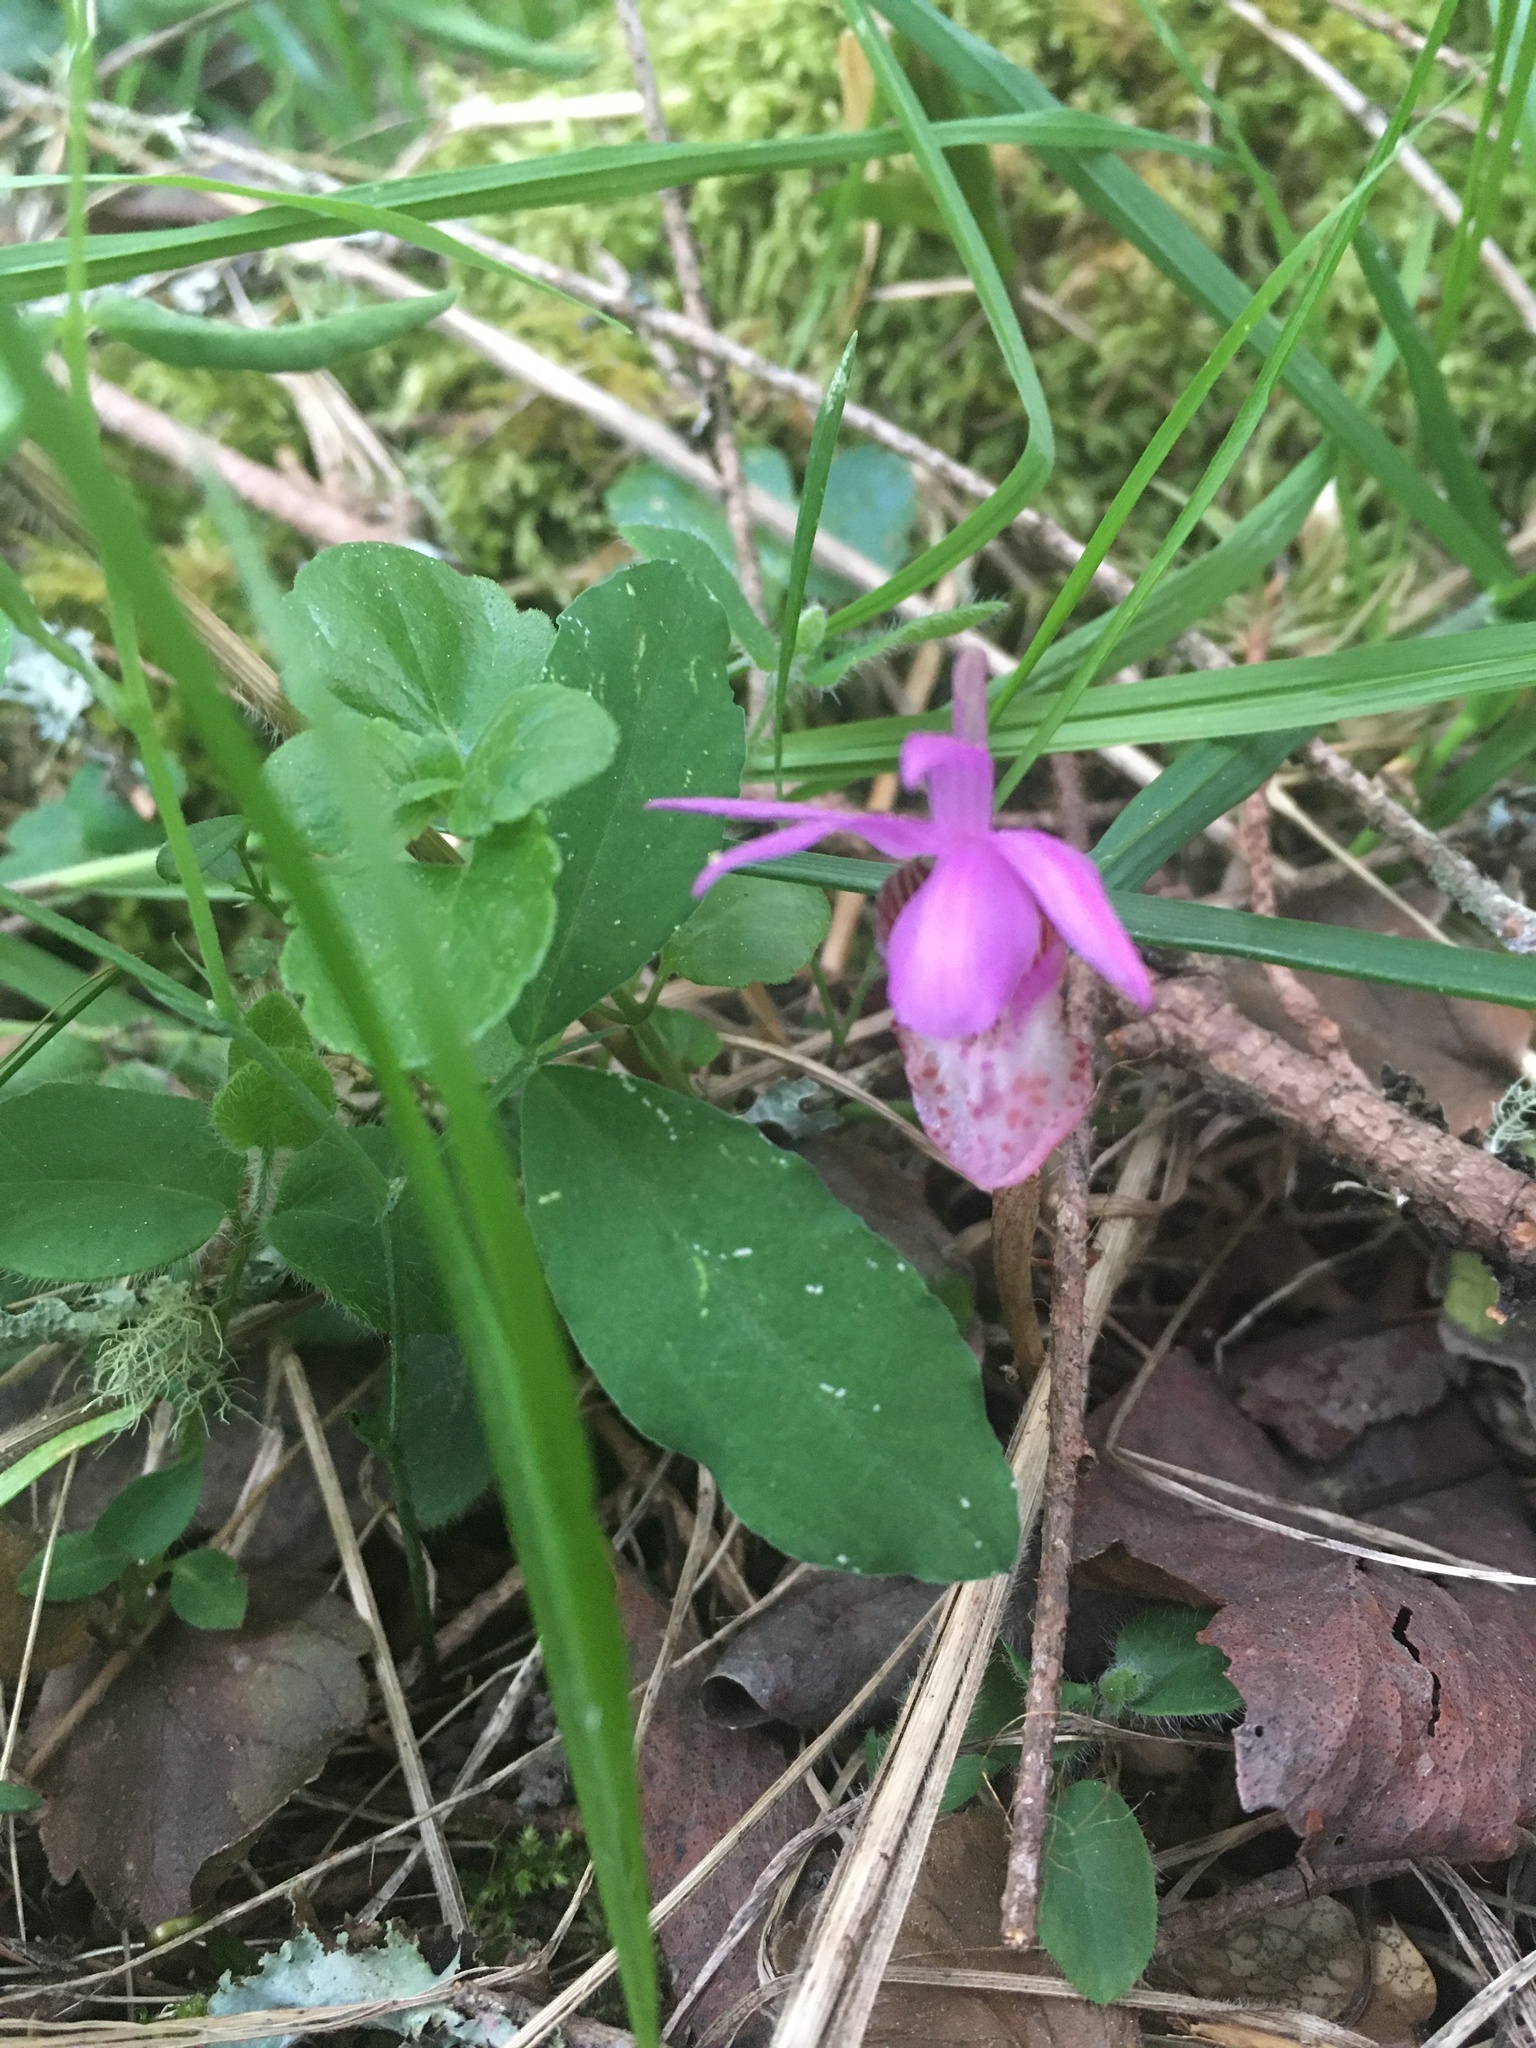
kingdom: Plantae
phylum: Tracheophyta
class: Liliopsida
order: Asparagales
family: Orchidaceae
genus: Calypso
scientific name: Calypso bulbosa
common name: Calypso
